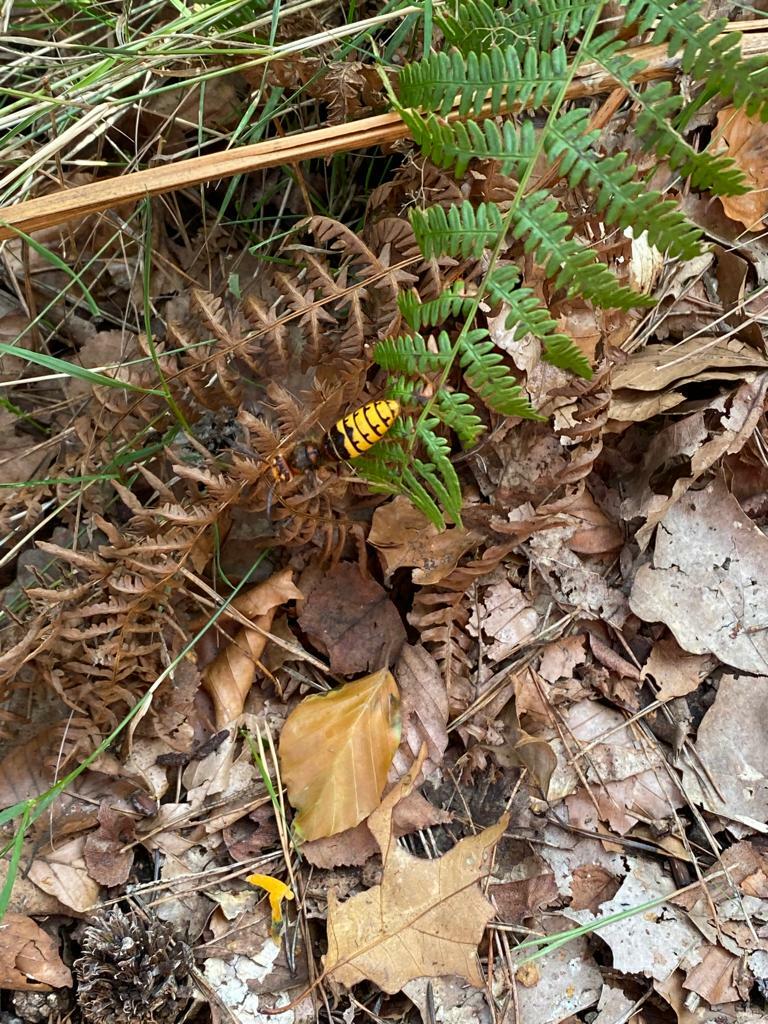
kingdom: Animalia
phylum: Arthropoda
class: Insecta
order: Hymenoptera
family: Vespidae
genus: Vespa
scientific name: Vespa crabro
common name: Hornet
